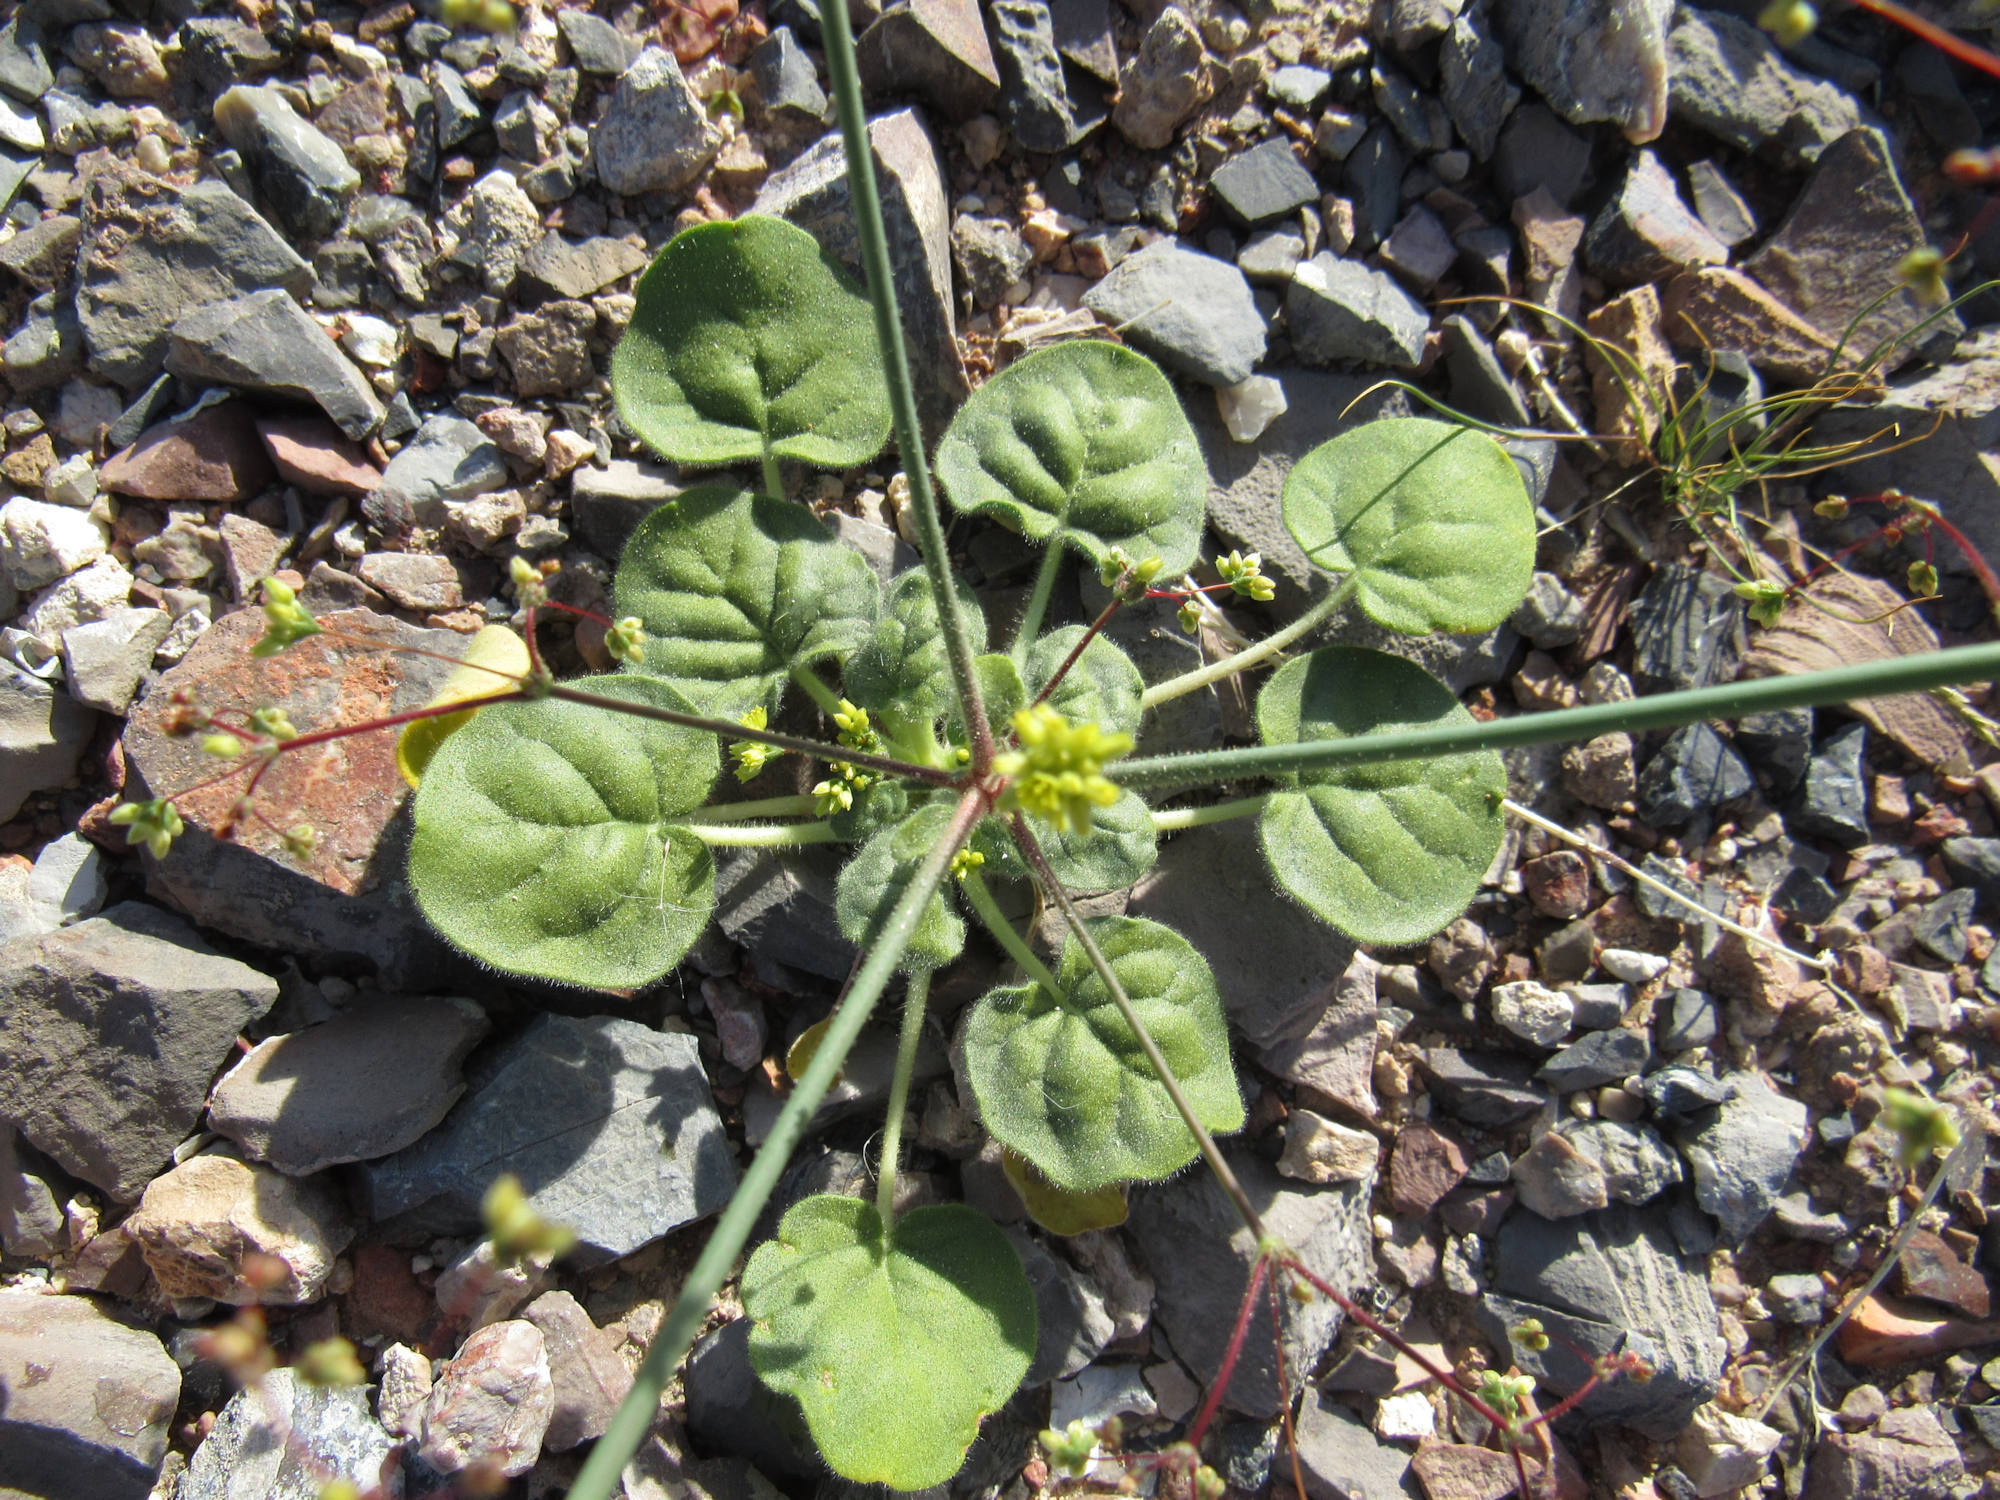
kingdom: Plantae
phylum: Tracheophyta
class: Magnoliopsida
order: Caryophyllales
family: Polygonaceae
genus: Eriogonum
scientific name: Eriogonum trichopes
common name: Little desert trumpet
